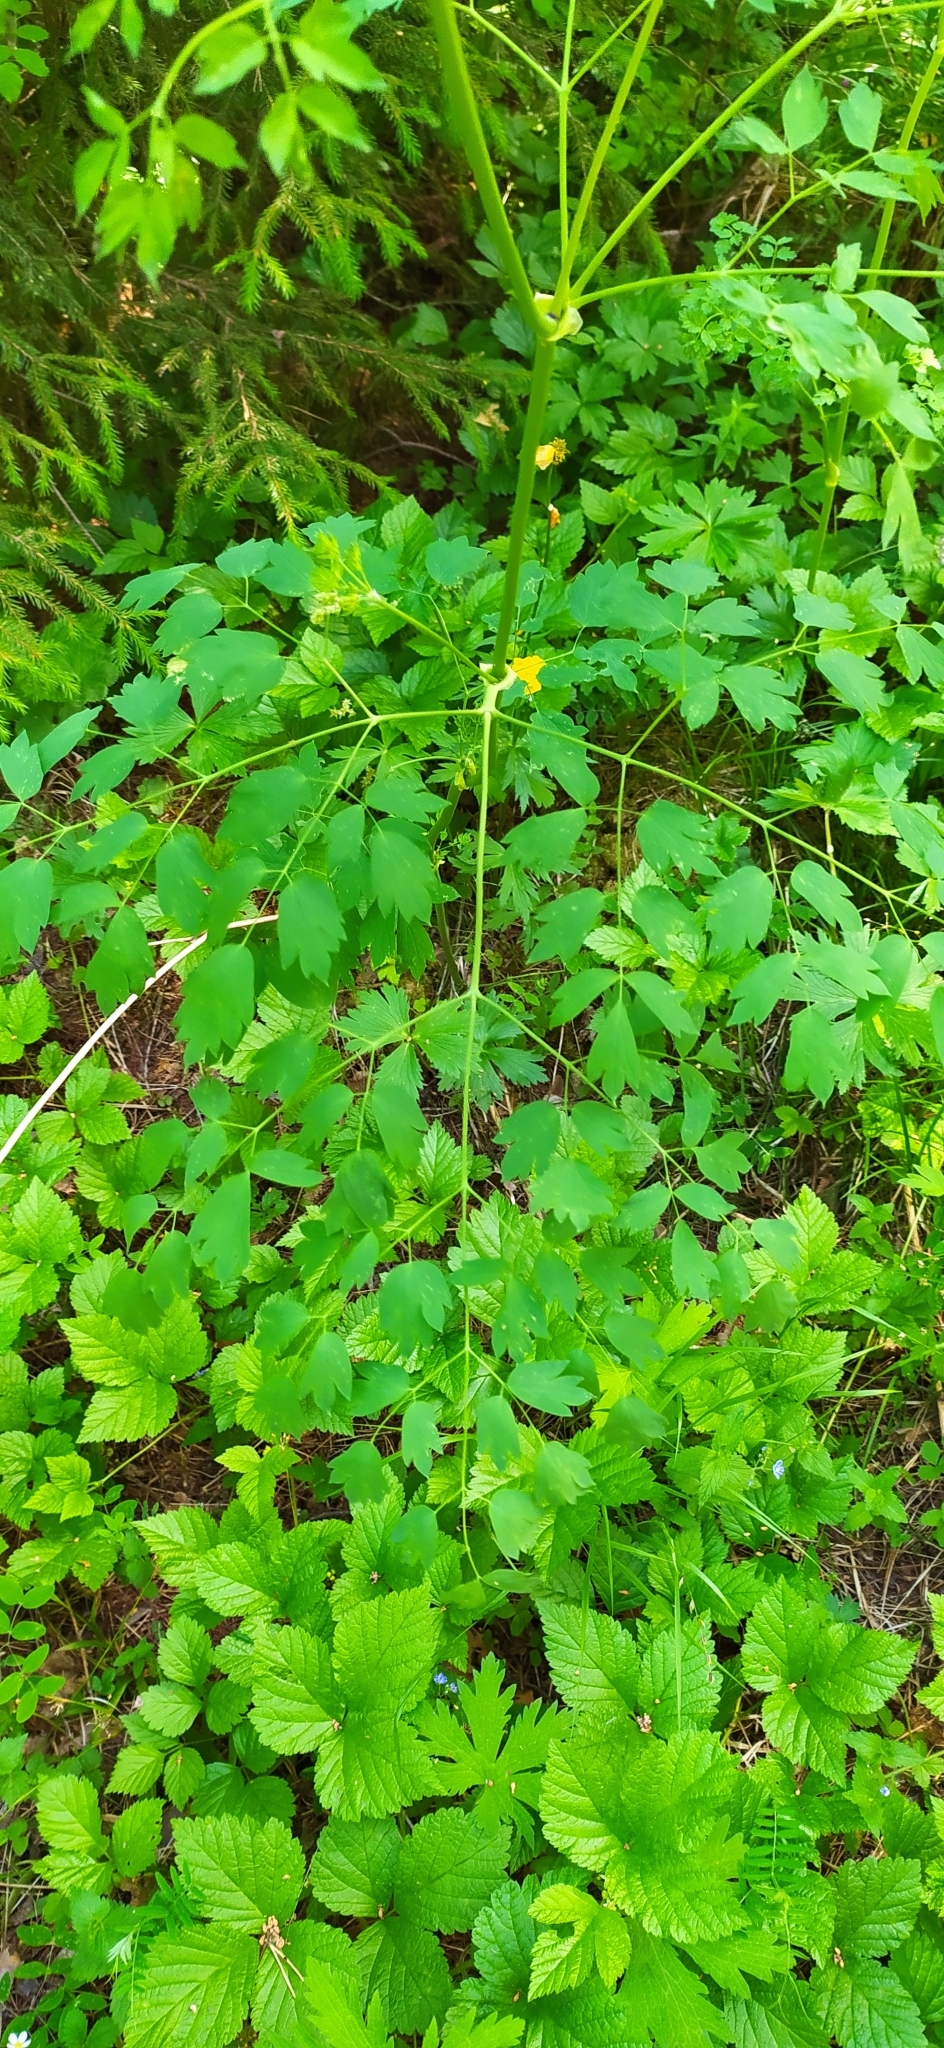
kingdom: Plantae
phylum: Tracheophyta
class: Magnoliopsida
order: Ranunculales
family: Ranunculaceae
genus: Thalictrum
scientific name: Thalictrum minus
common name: Lesser meadow-rue
